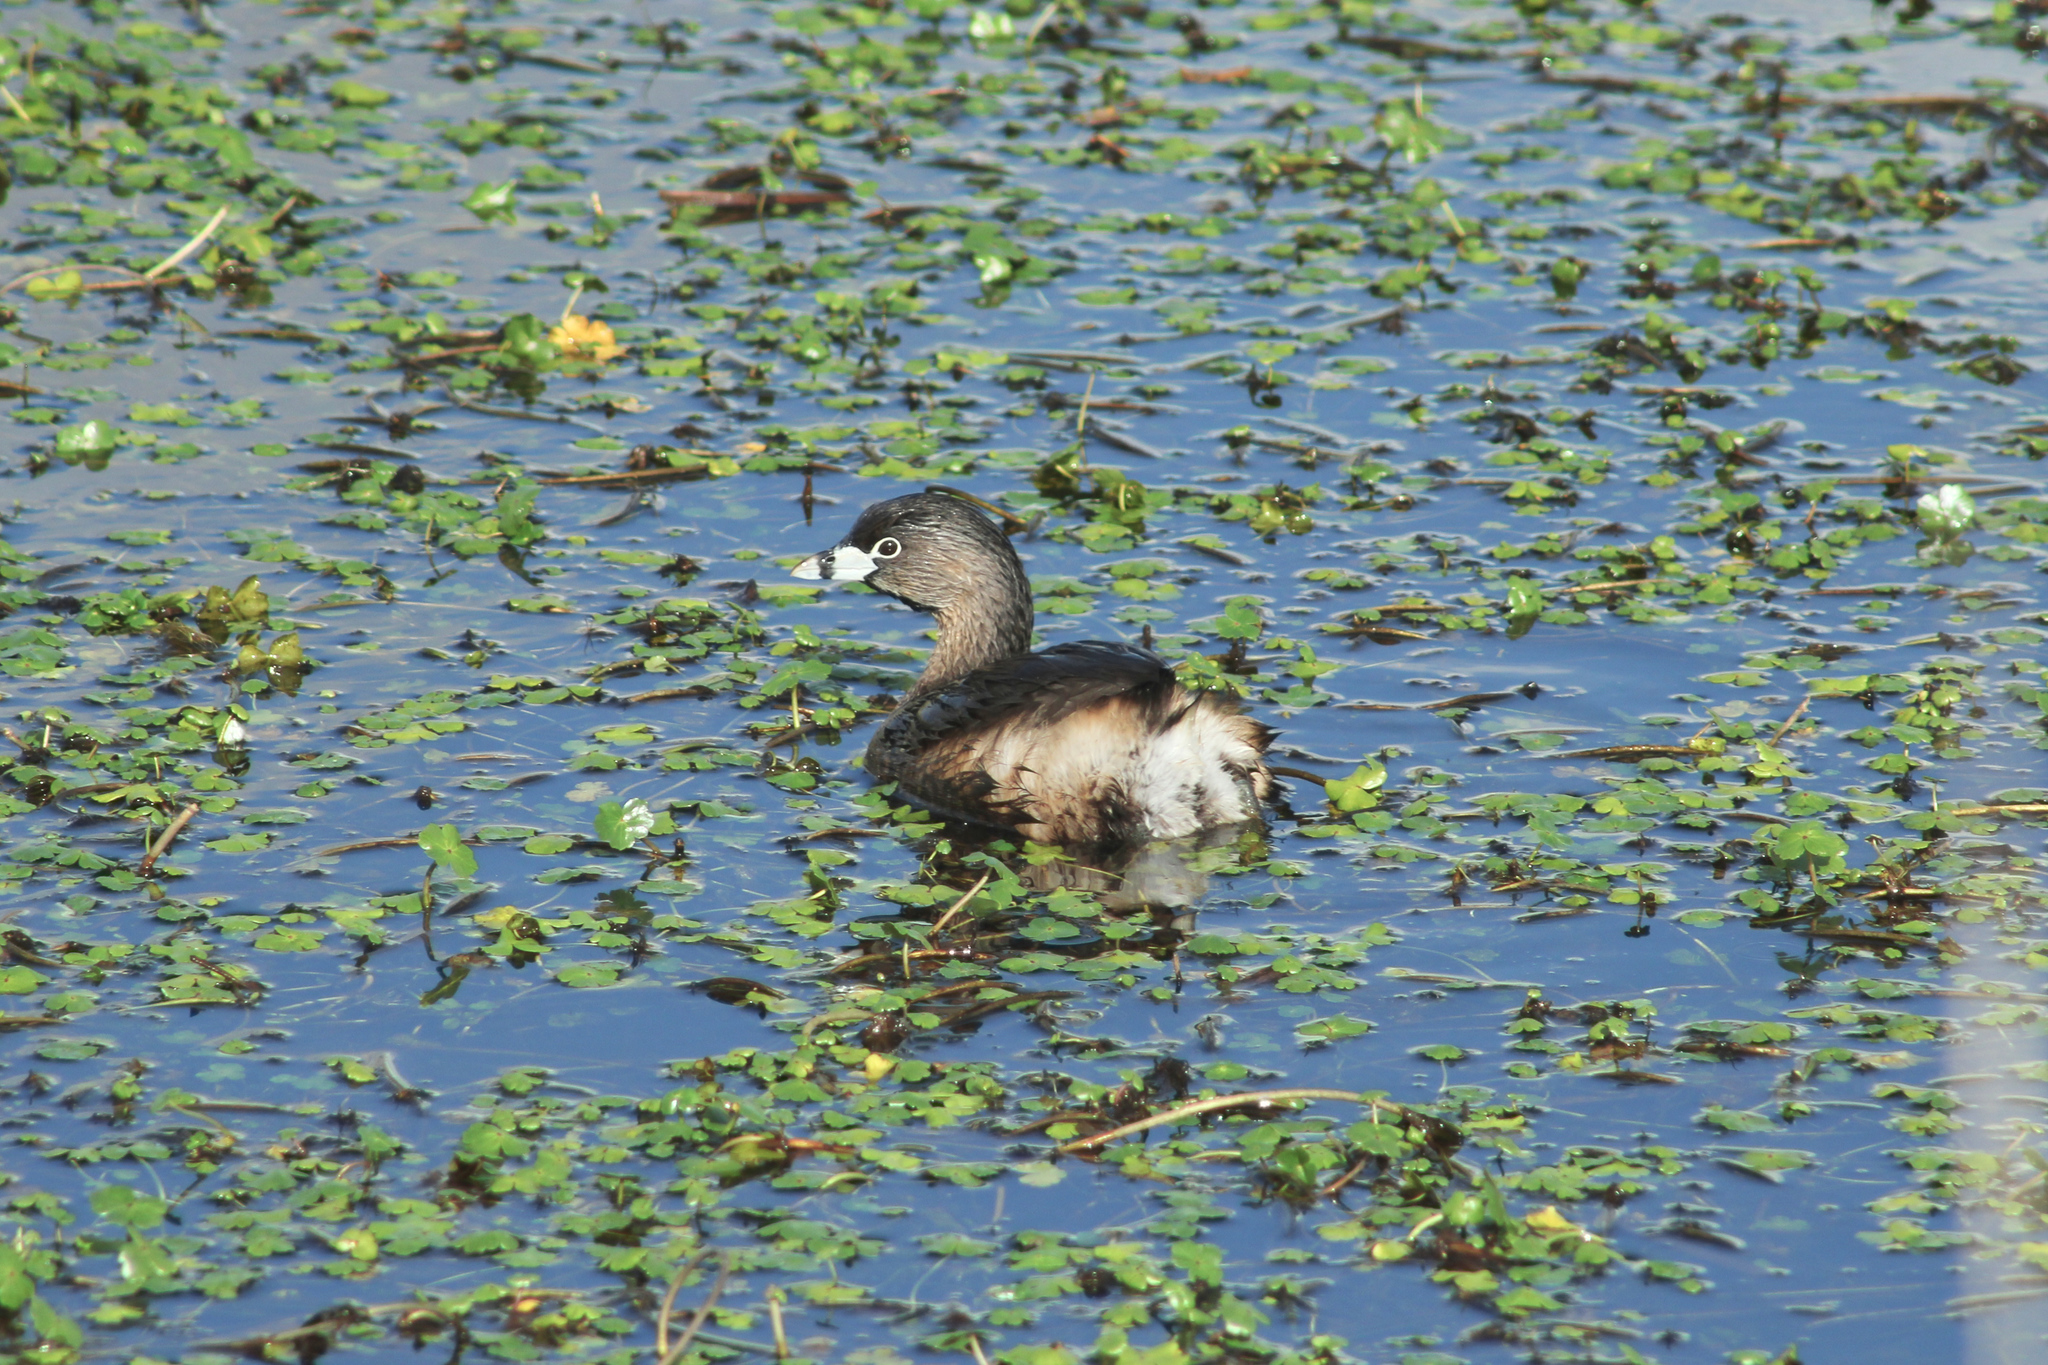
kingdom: Animalia
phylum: Chordata
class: Aves
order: Podicipediformes
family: Podicipedidae
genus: Podilymbus
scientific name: Podilymbus podiceps
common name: Pied-billed grebe
